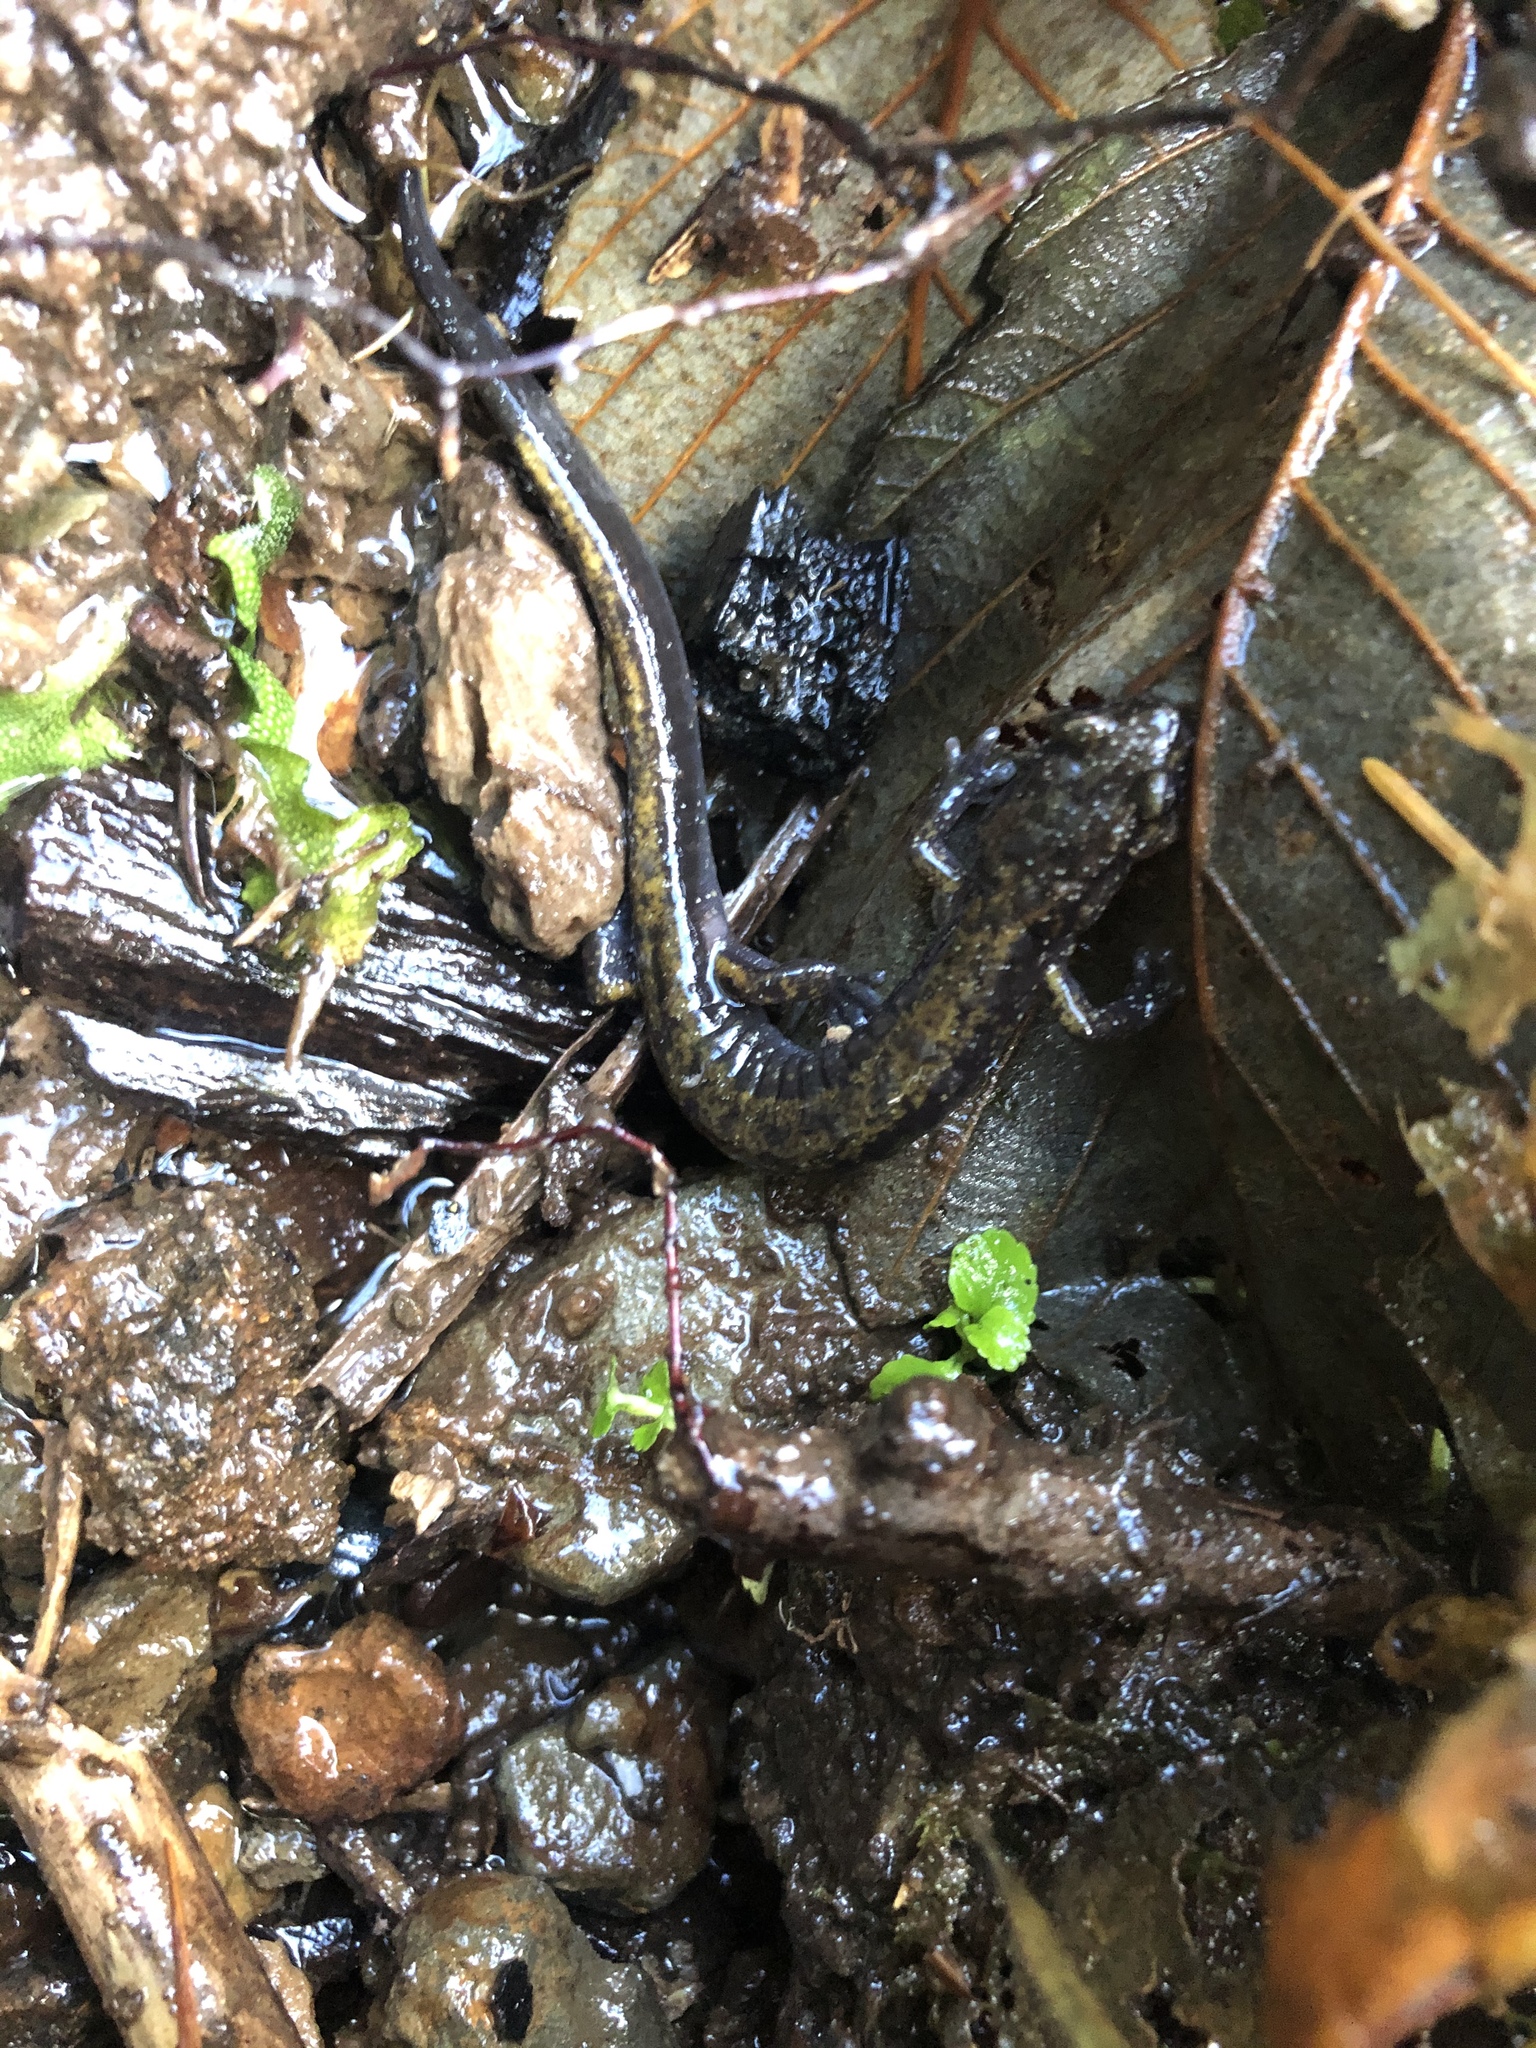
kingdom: Animalia
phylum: Chordata
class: Amphibia
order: Caudata
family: Plethodontidae
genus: Plethodon
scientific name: Plethodon dunni
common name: Dunn's salamander
